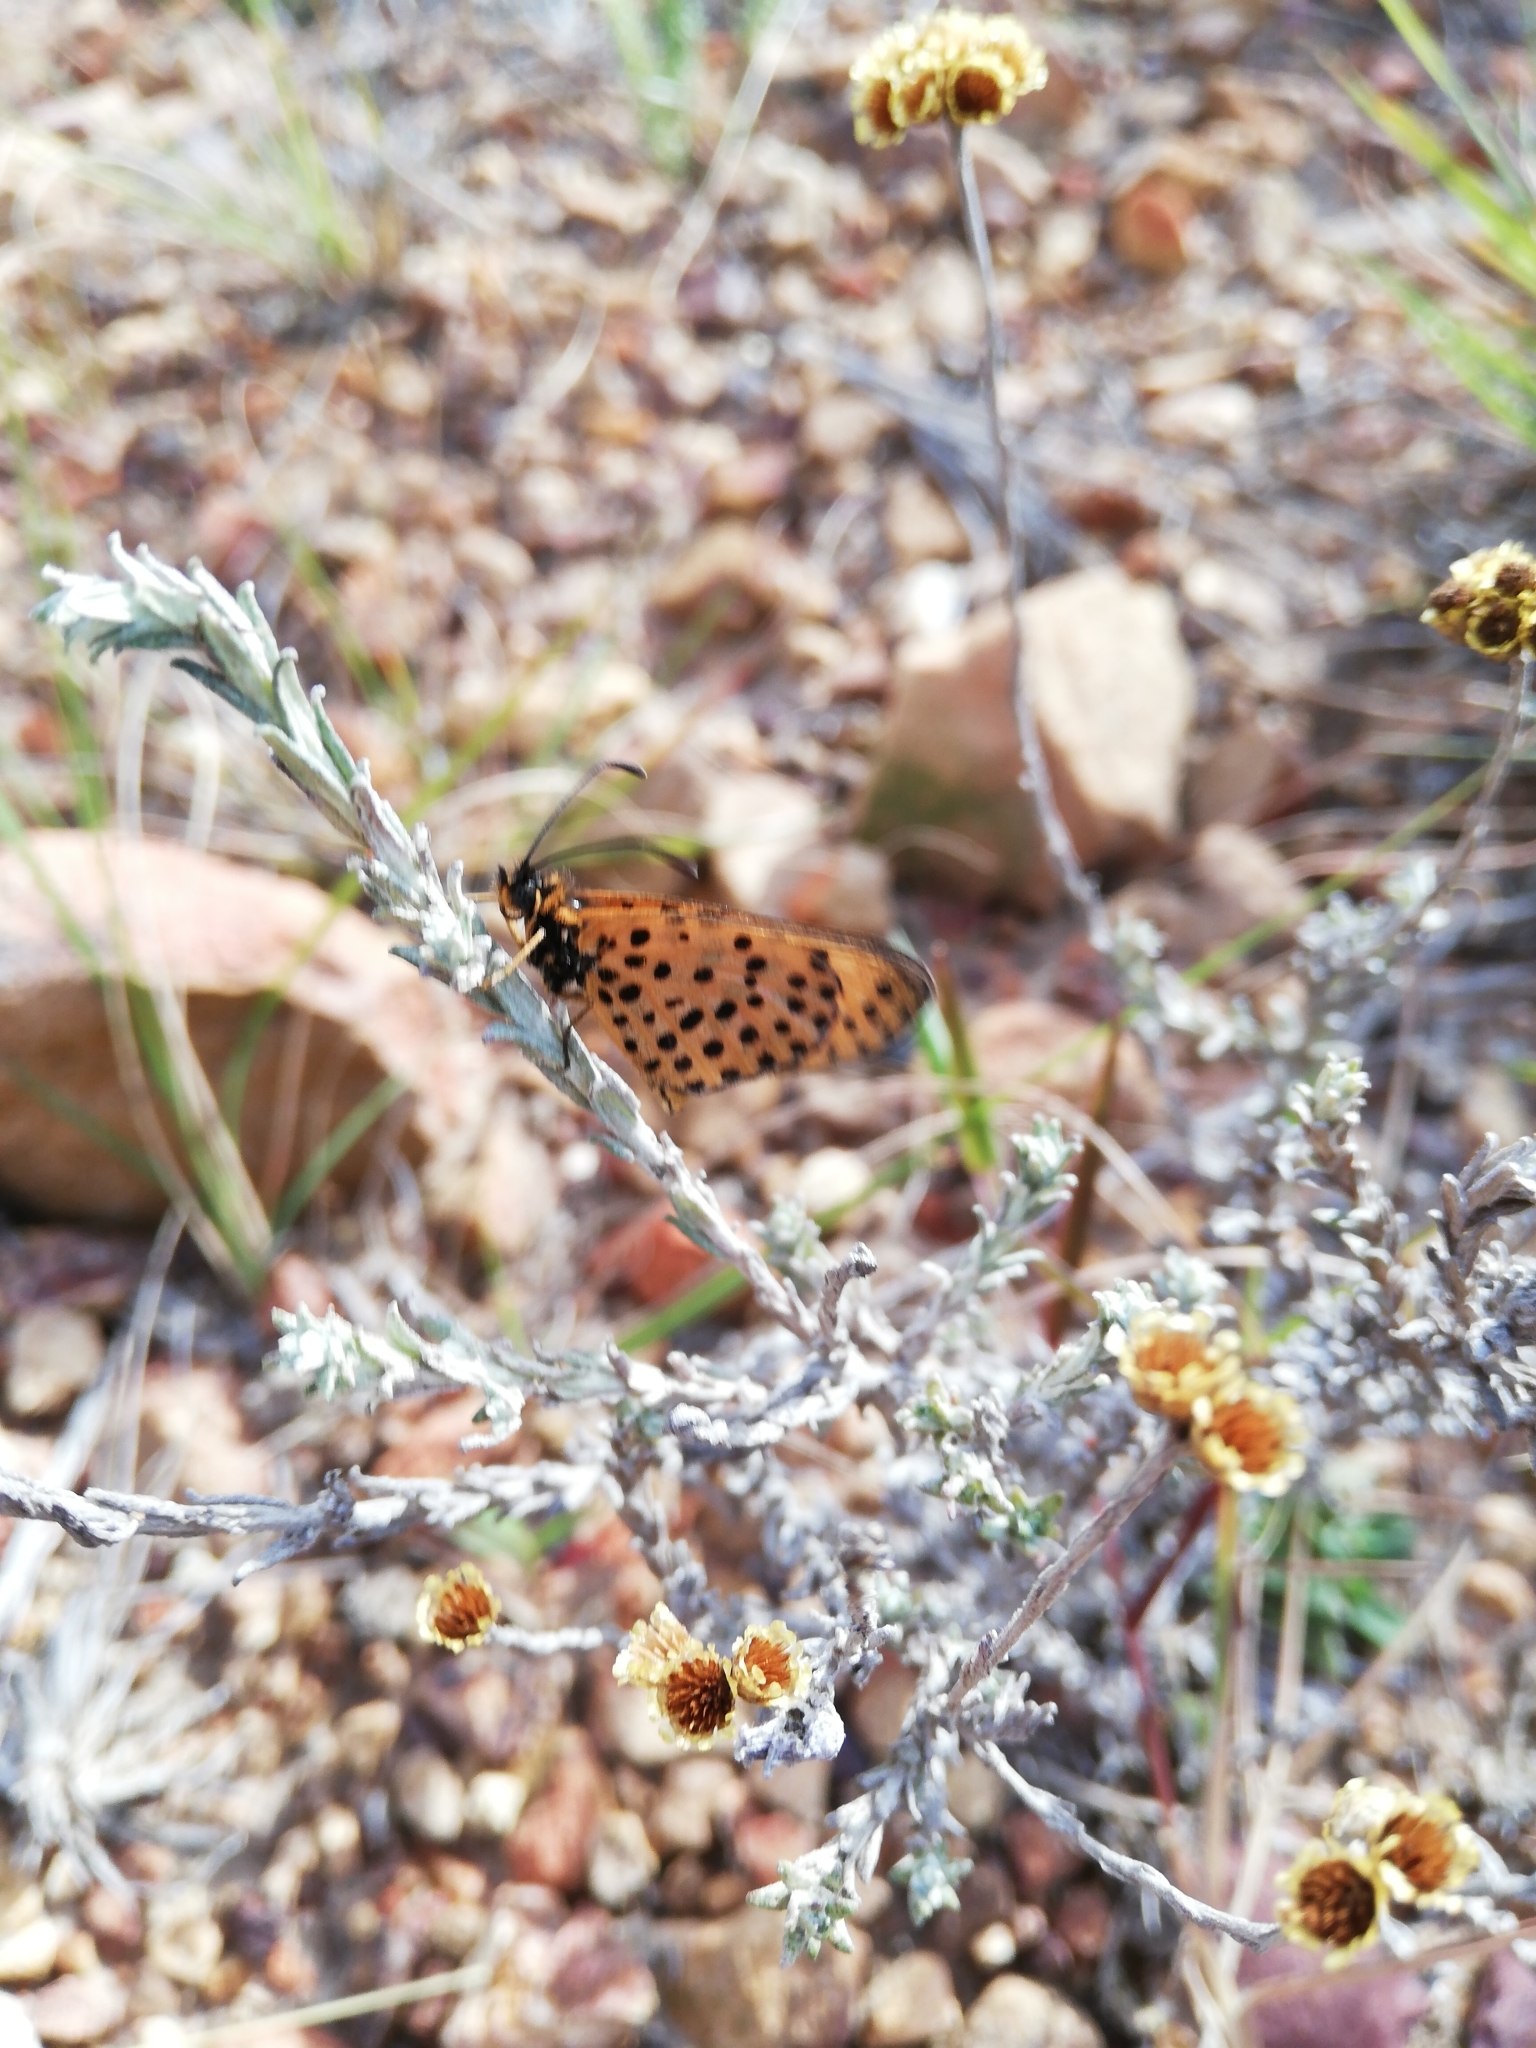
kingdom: Animalia
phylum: Arthropoda
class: Insecta
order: Lepidoptera
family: Nymphalidae
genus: Pardopsis
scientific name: Pardopsis punctatissima
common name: Polka dot
